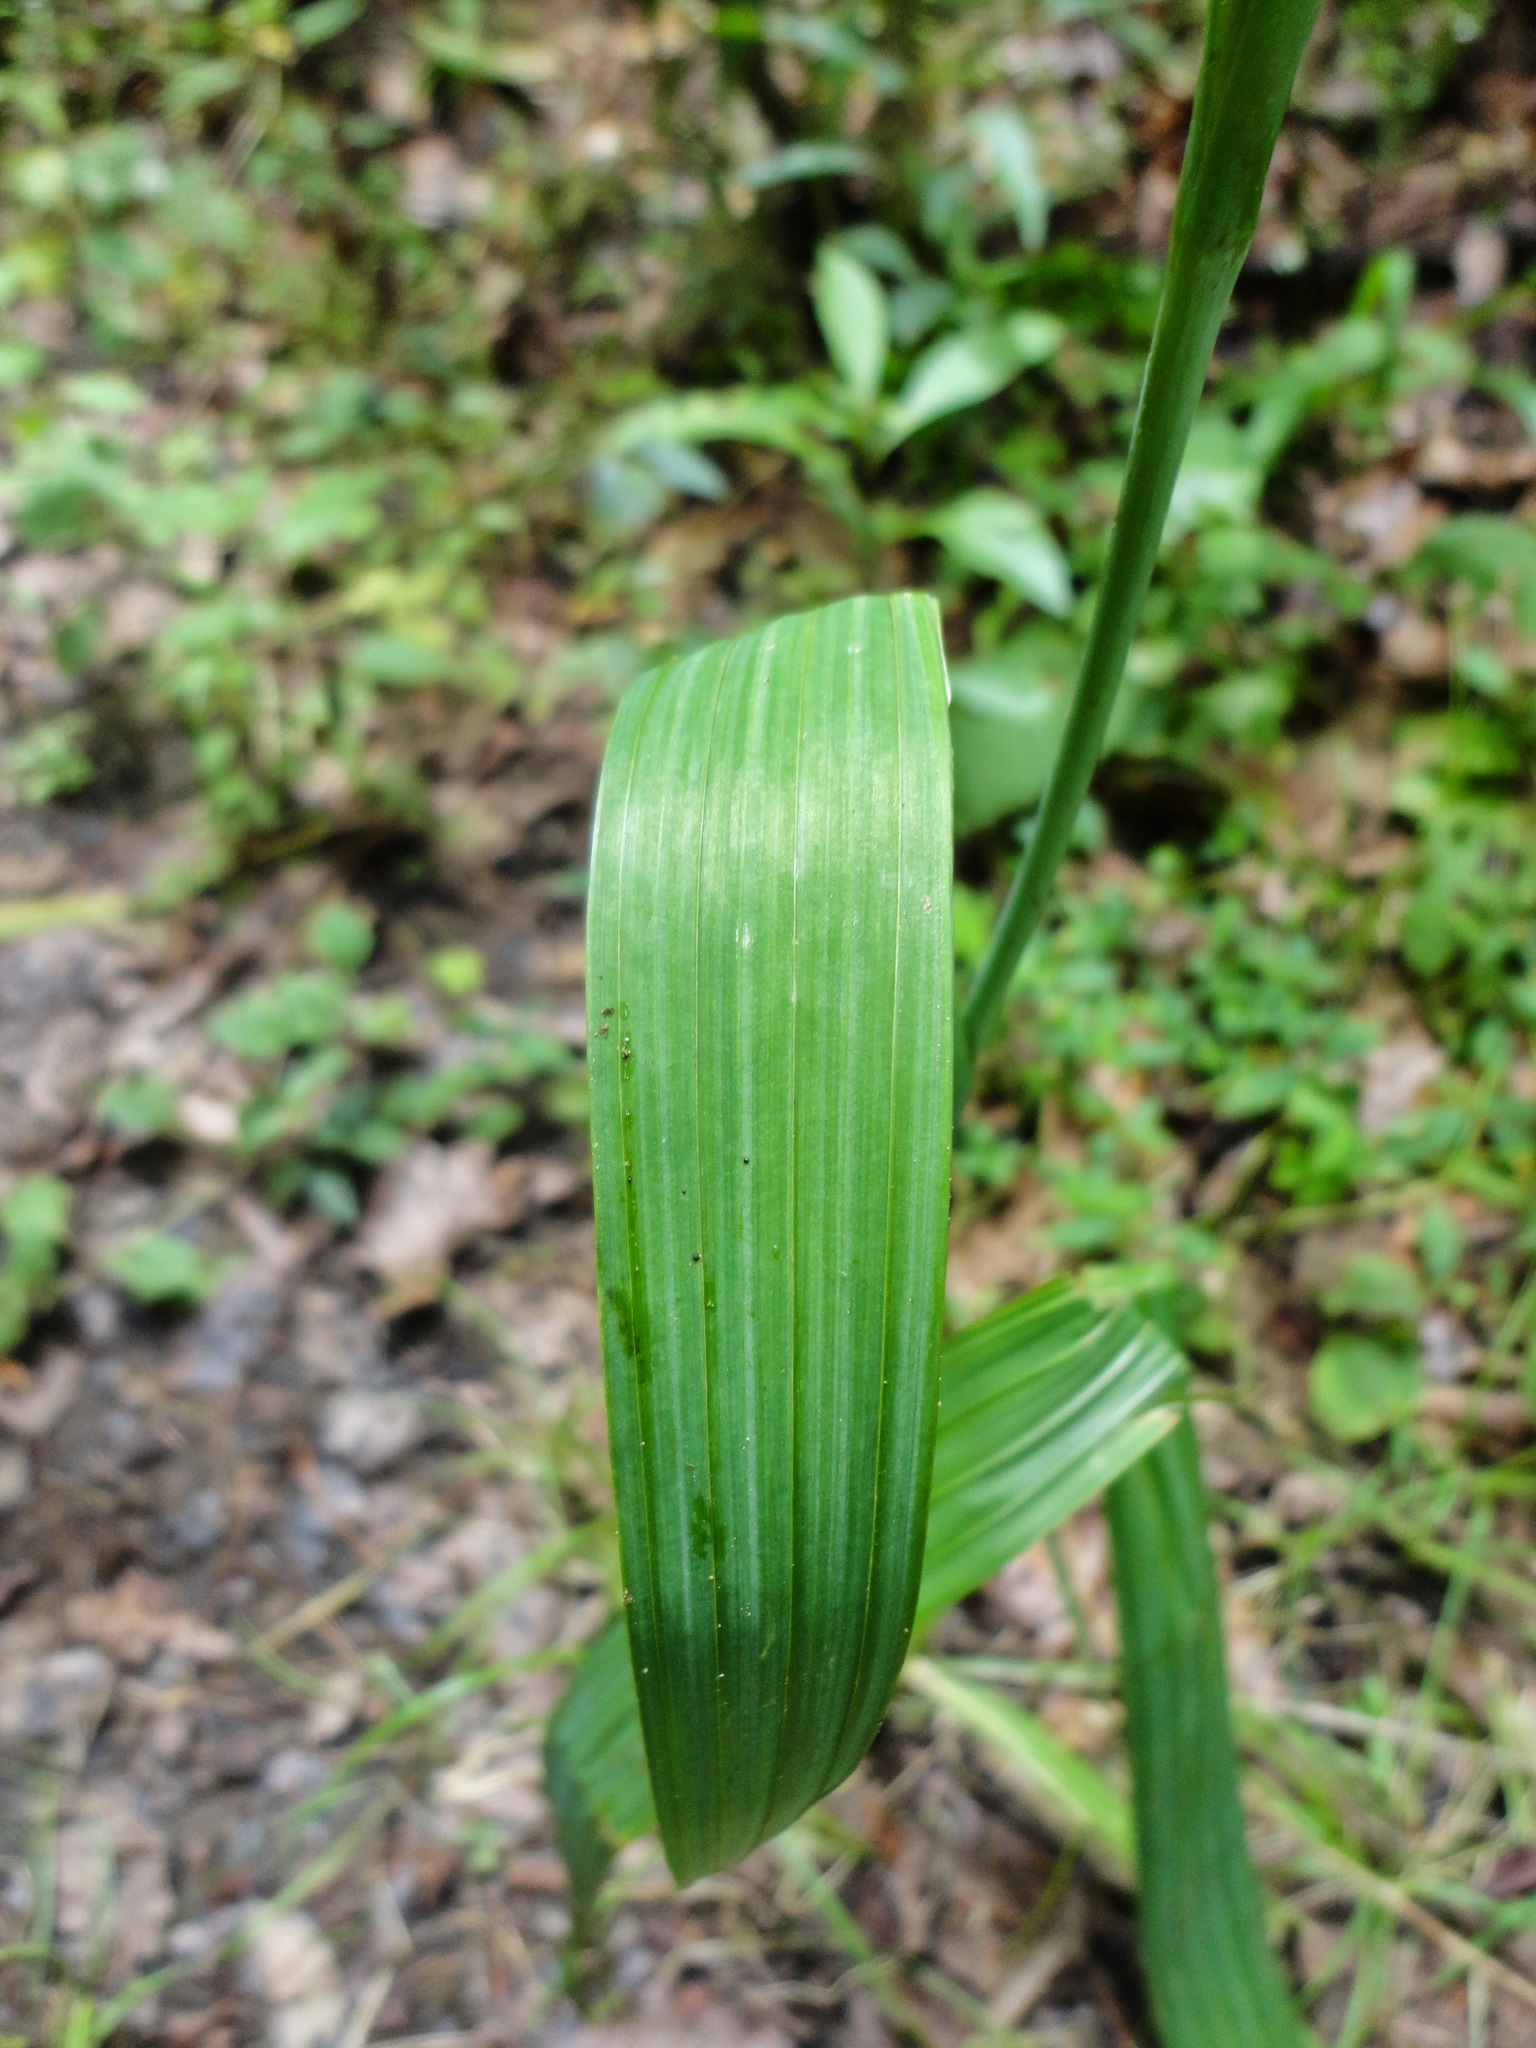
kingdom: Plantae
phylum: Tracheophyta
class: Liliopsida
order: Asparagales
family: Iridaceae
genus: Tigridia
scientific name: Tigridia pavonia
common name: Peacock-flower
